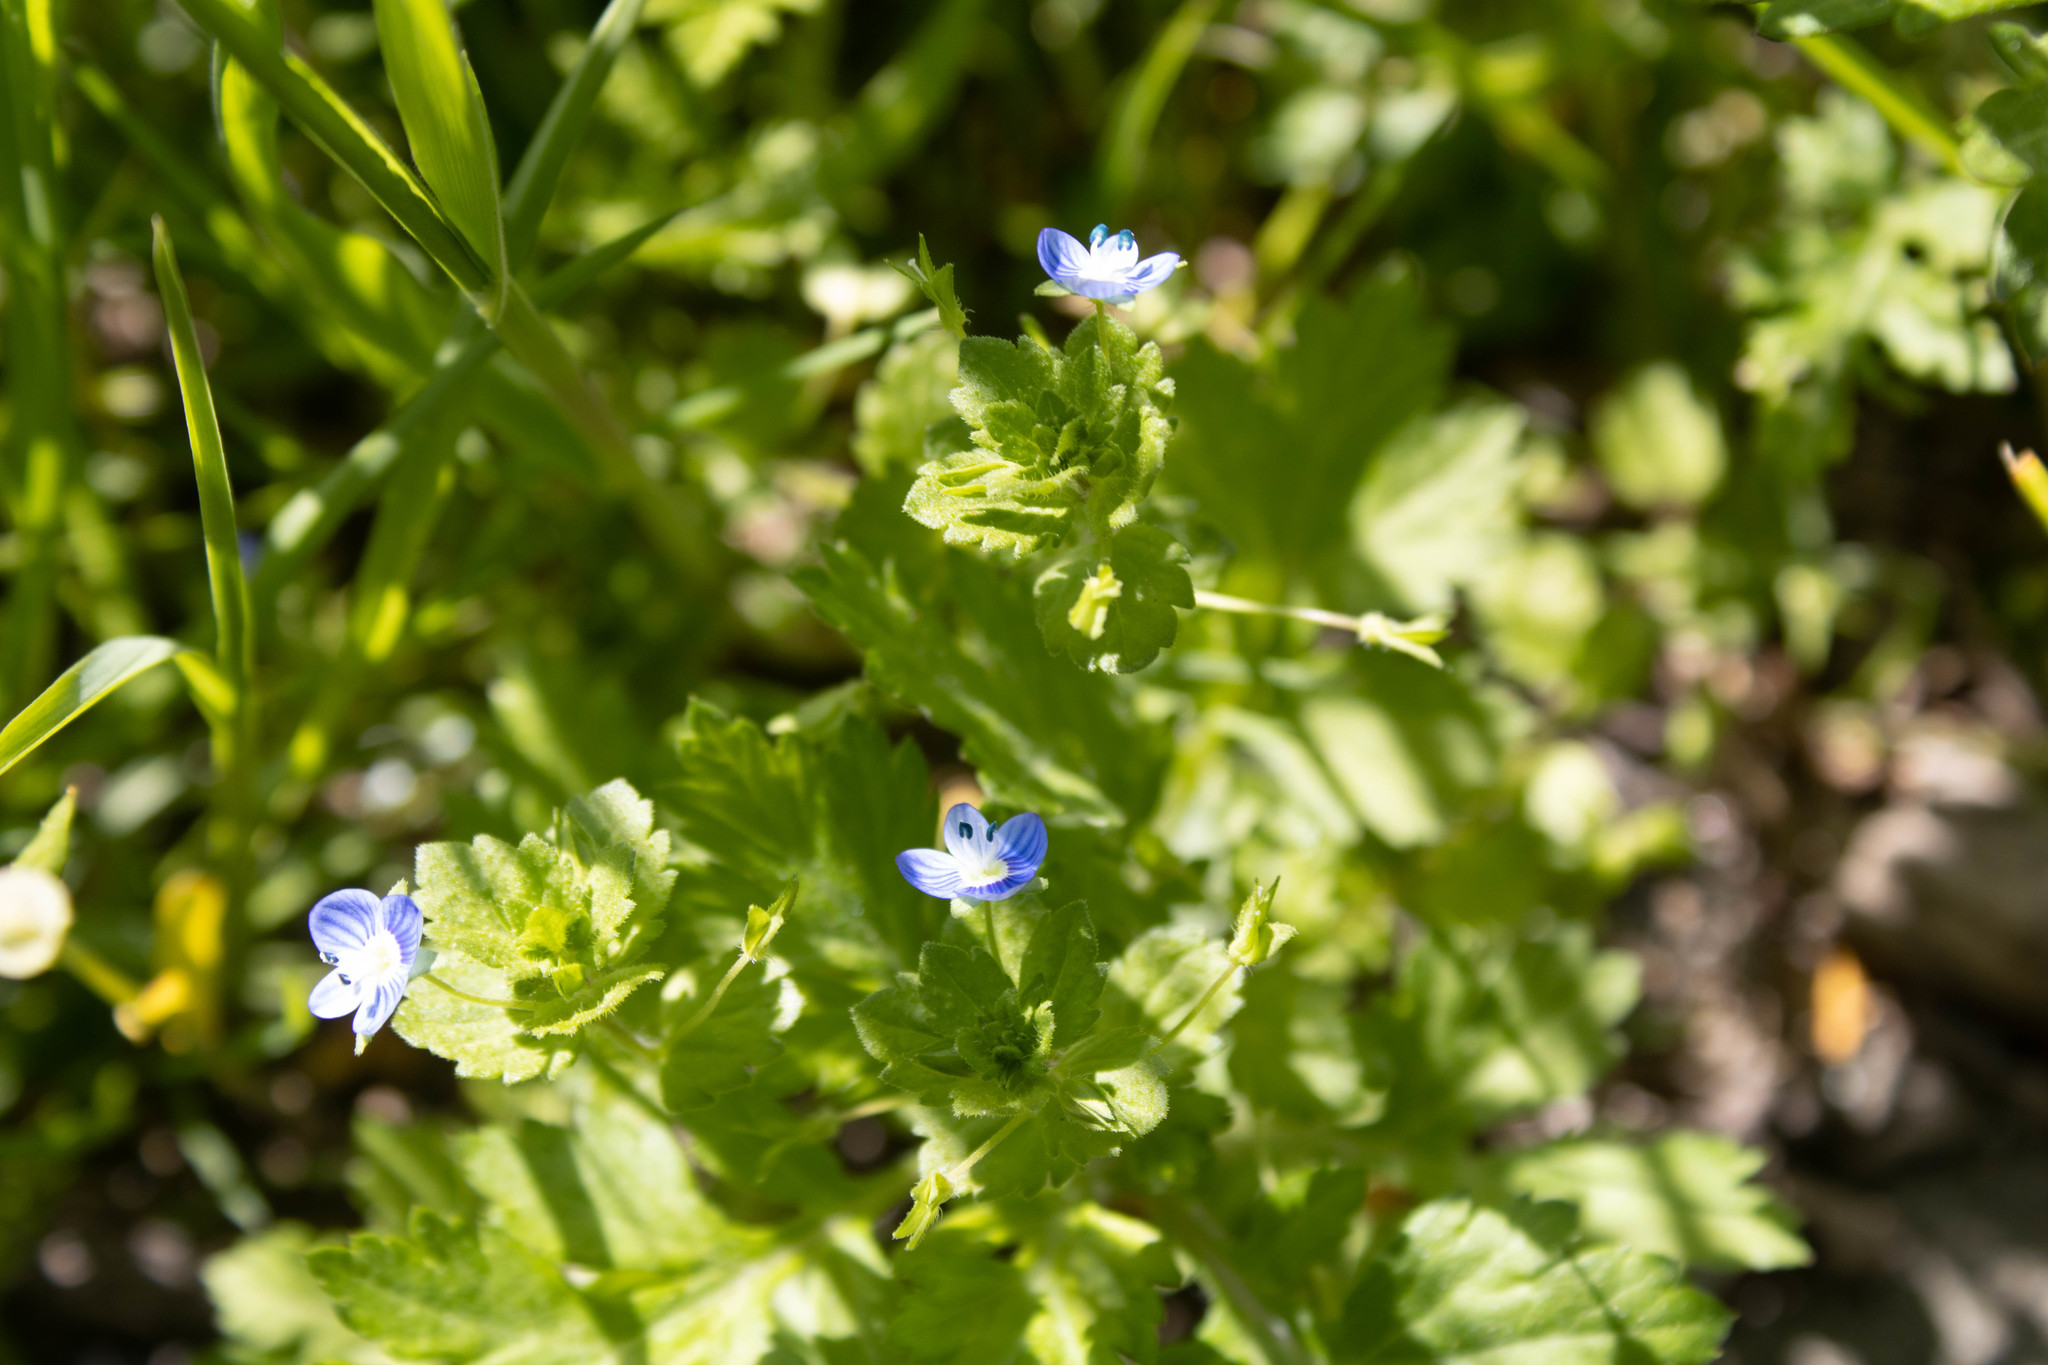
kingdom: Plantae
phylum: Tracheophyta
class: Magnoliopsida
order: Lamiales
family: Plantaginaceae
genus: Veronica
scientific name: Veronica persica
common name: Common field-speedwell
